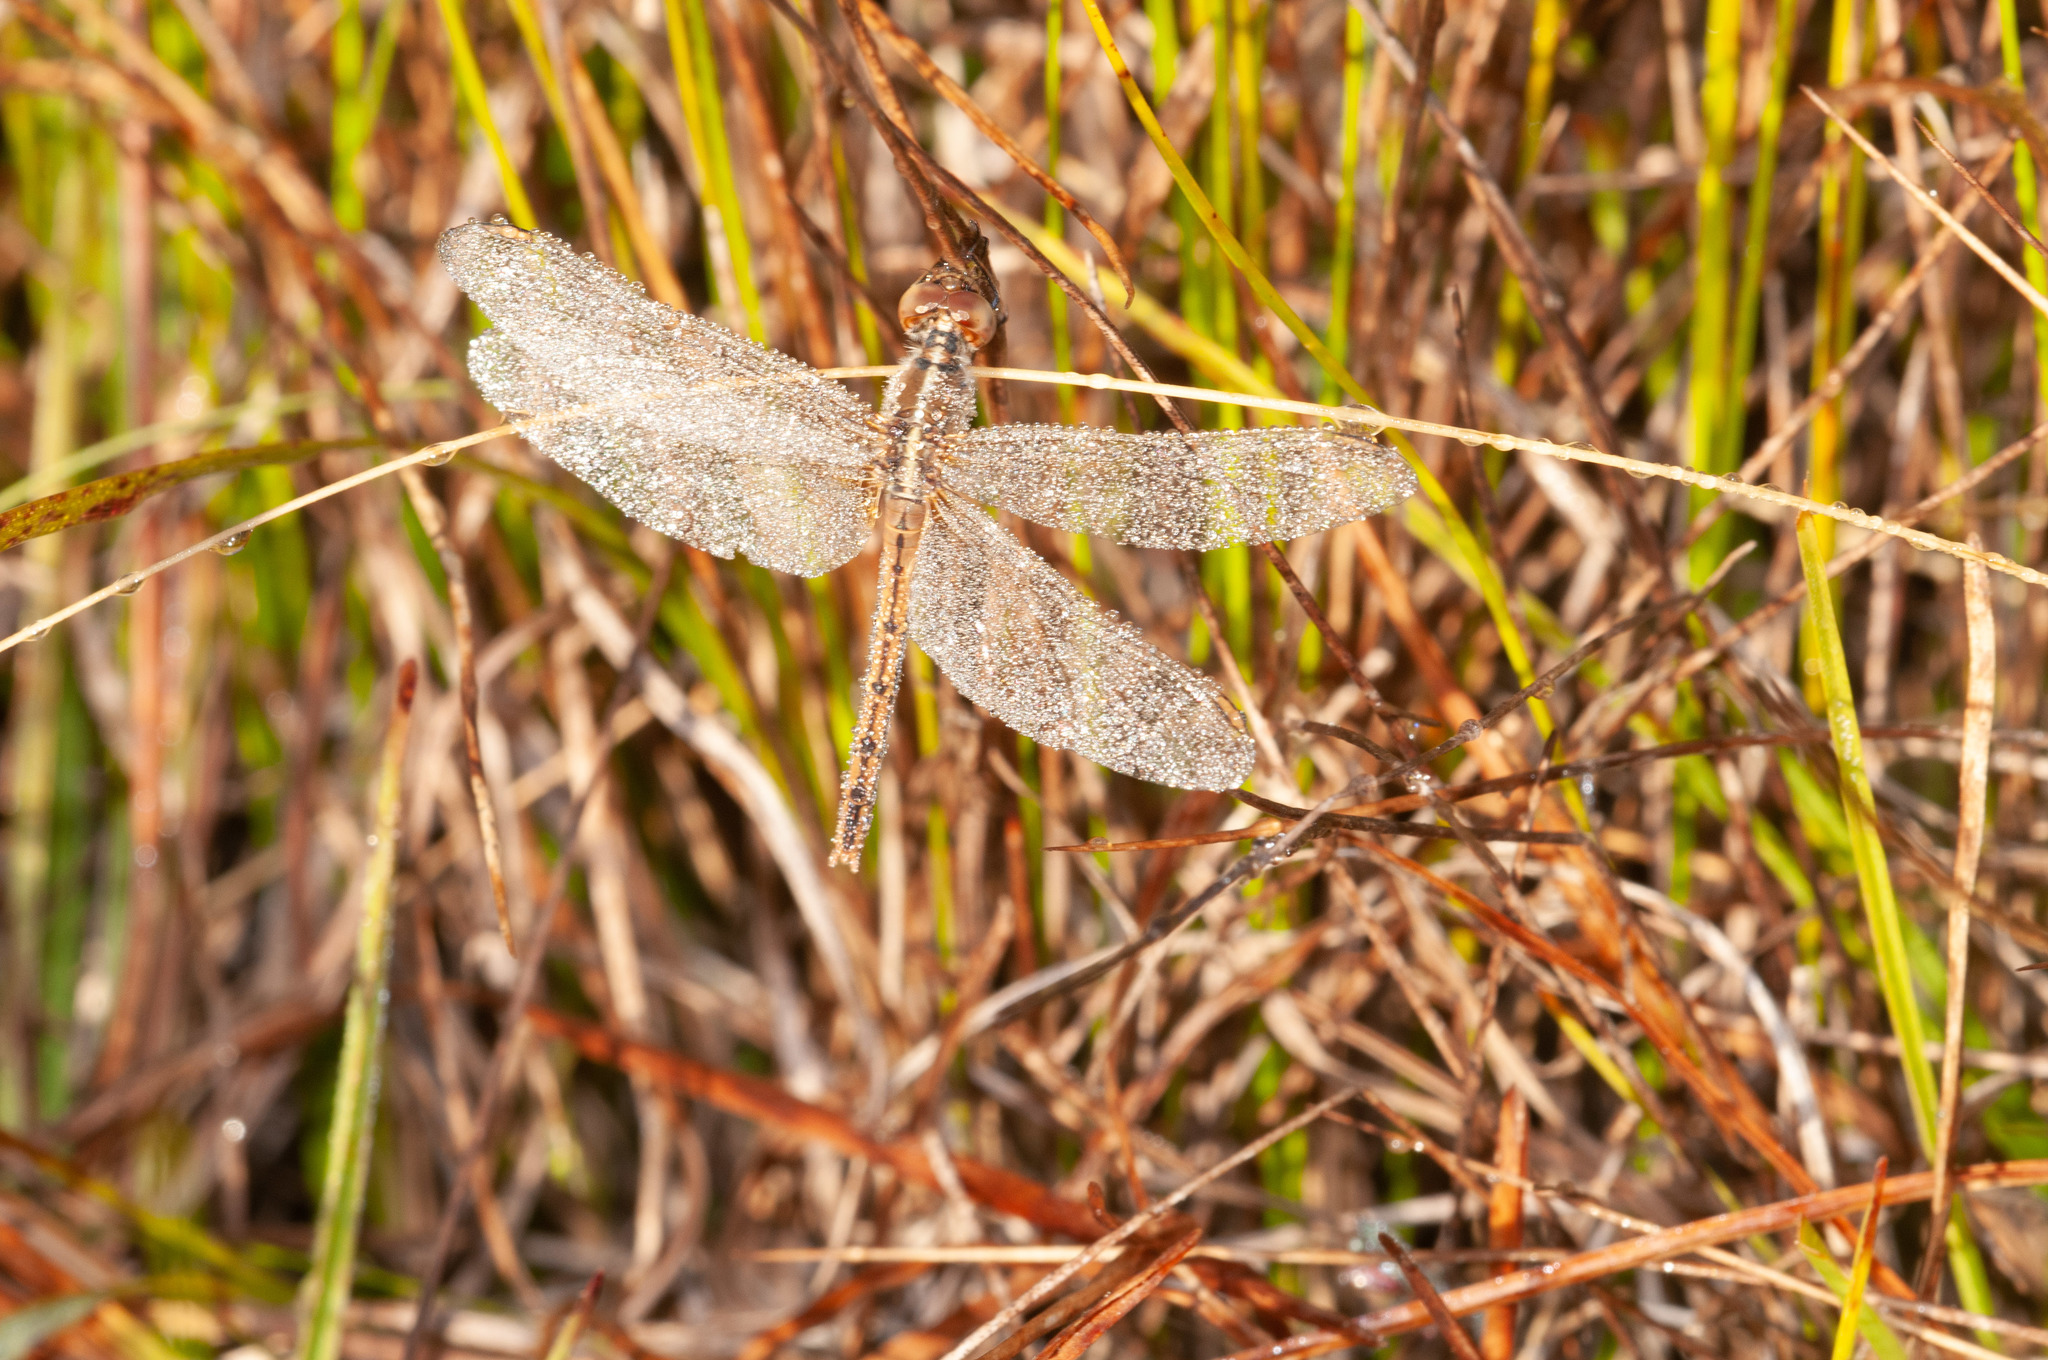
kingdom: Animalia
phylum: Arthropoda
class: Insecta
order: Odonata
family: Libellulidae
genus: Diplacodes
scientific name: Diplacodes bipunctata
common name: Red percher dragonfly
